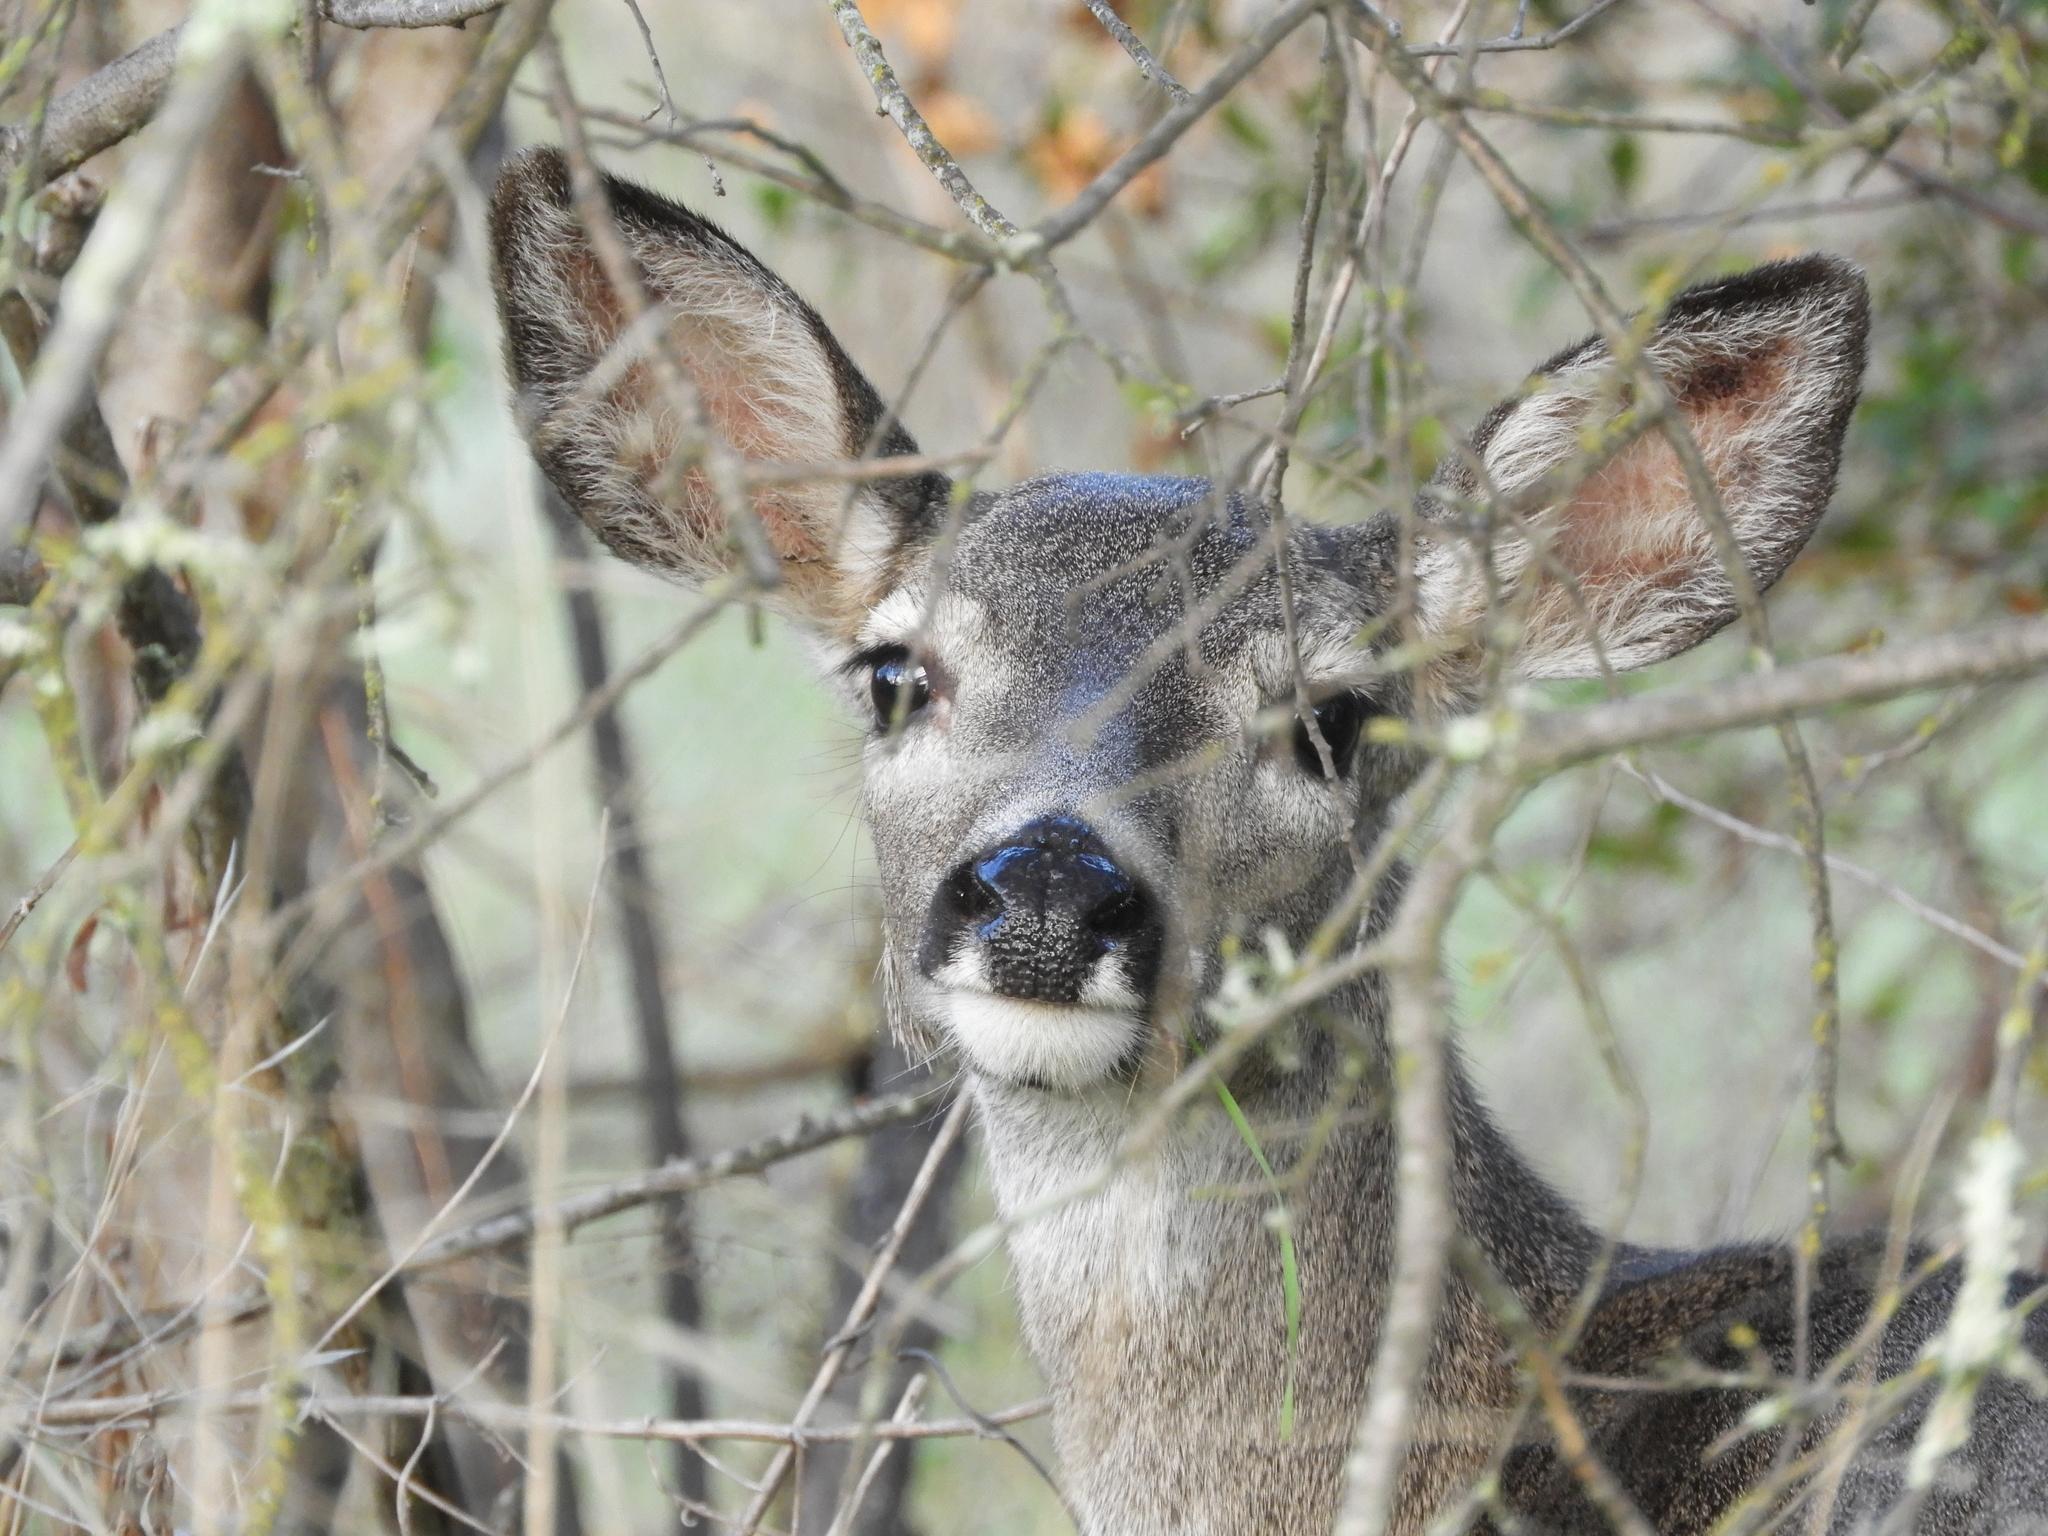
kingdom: Animalia
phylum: Chordata
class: Mammalia
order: Artiodactyla
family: Cervidae
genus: Odocoileus
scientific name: Odocoileus hemionus
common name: Mule deer
